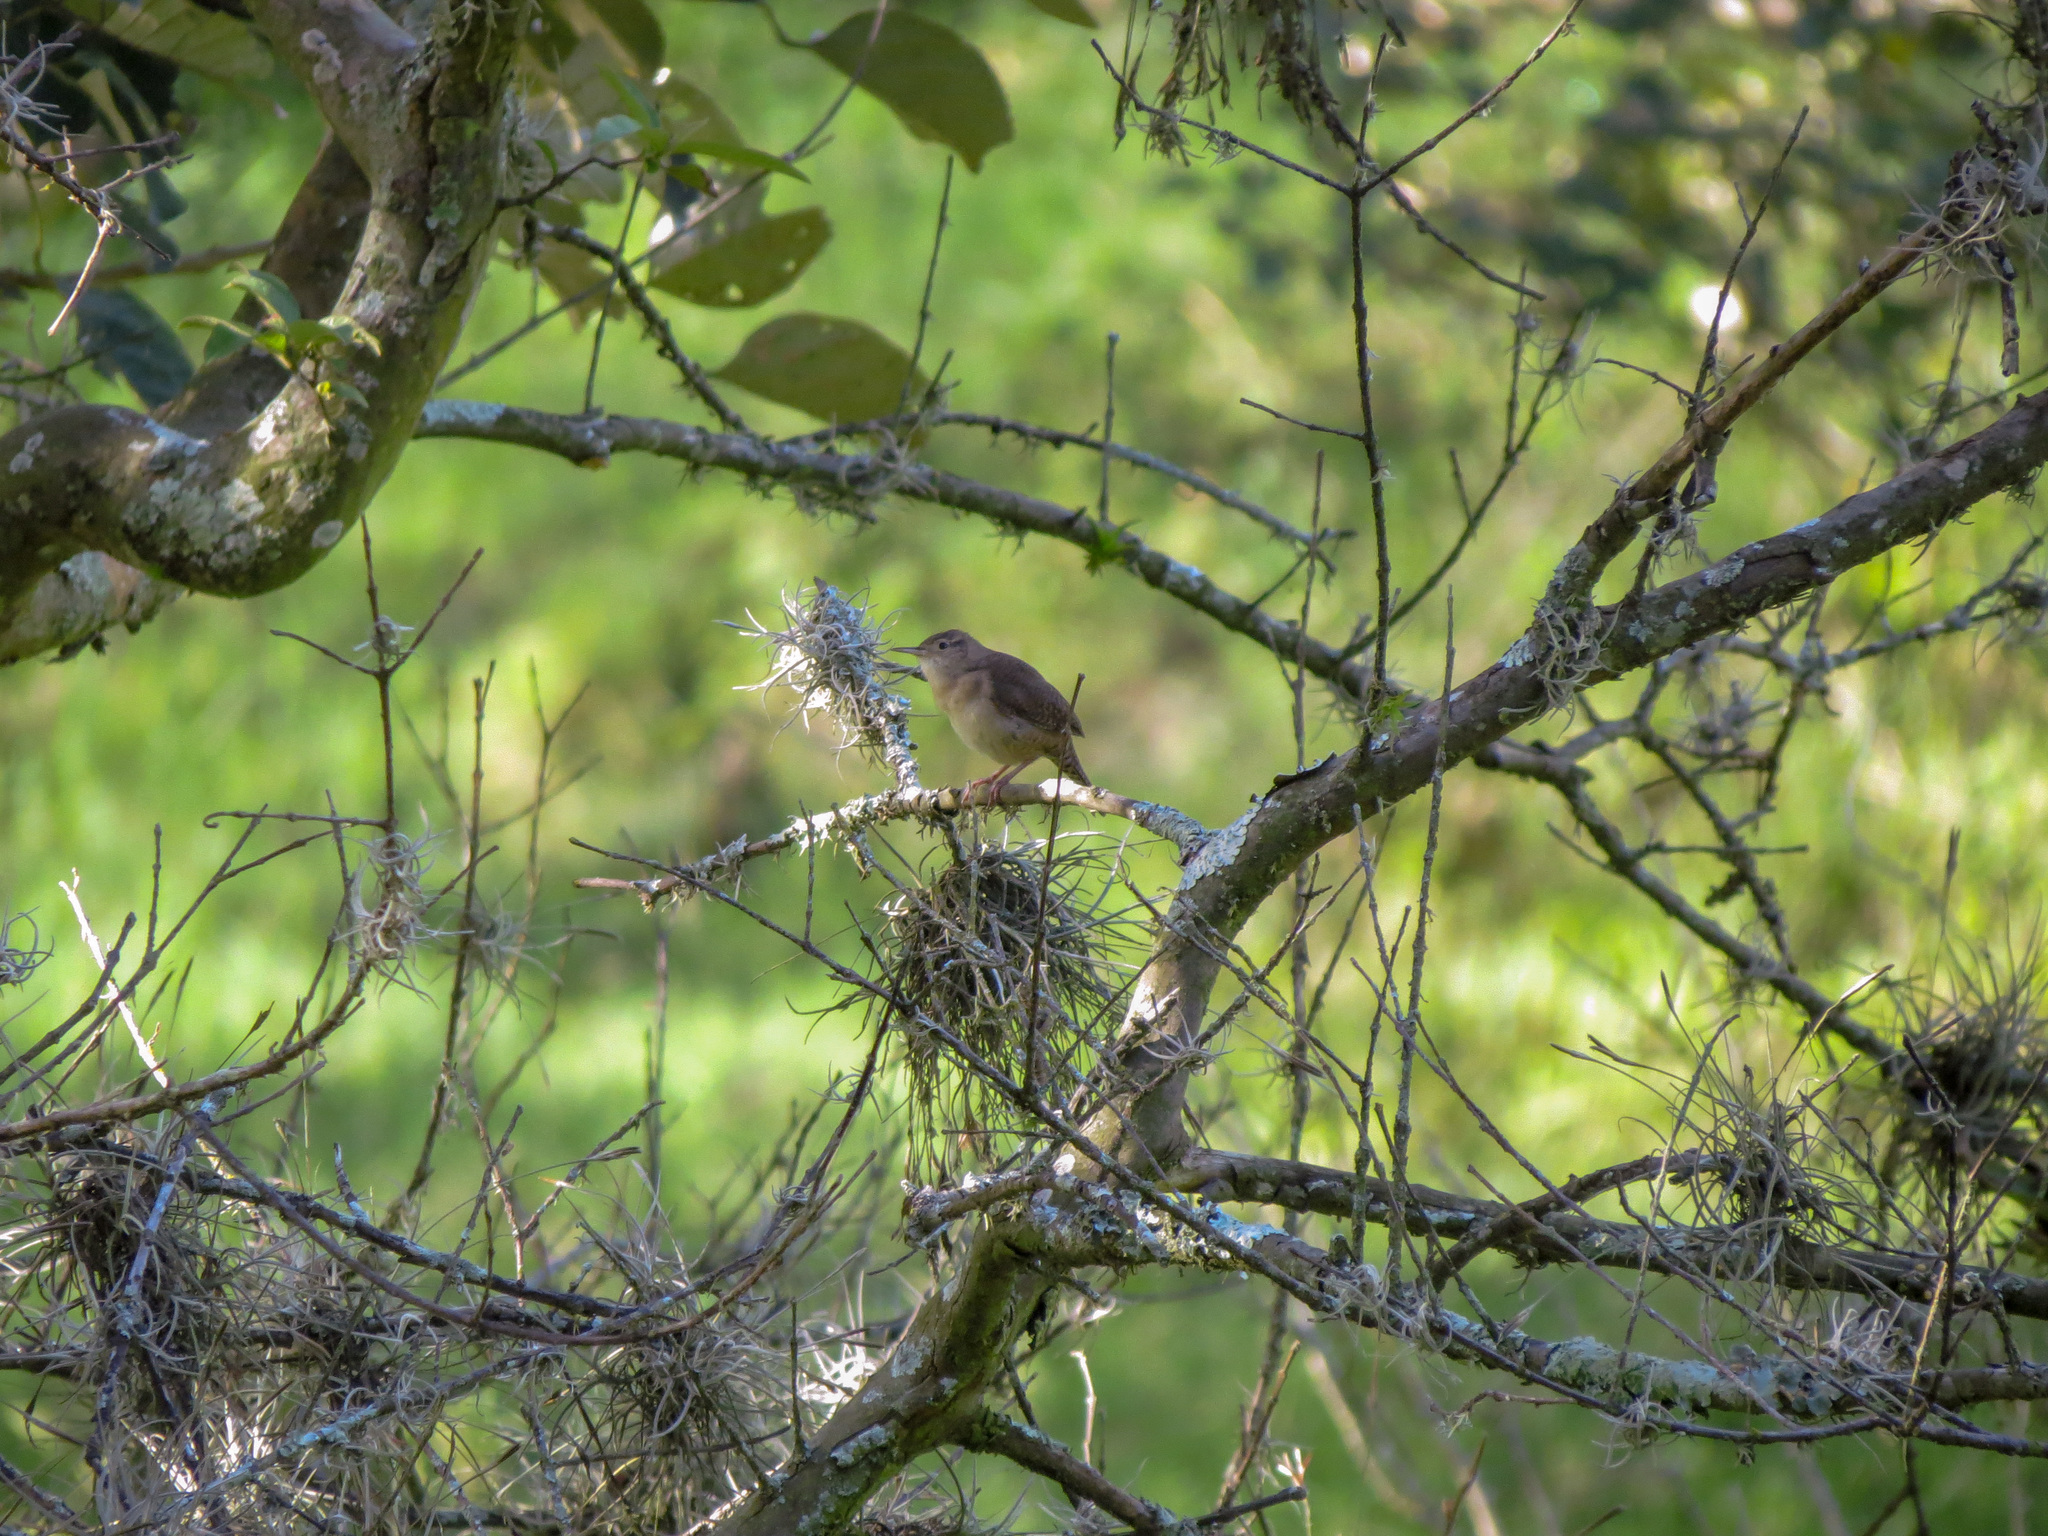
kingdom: Animalia
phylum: Chordata
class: Aves
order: Passeriformes
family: Troglodytidae
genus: Troglodytes
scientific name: Troglodytes aedon
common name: House wren
